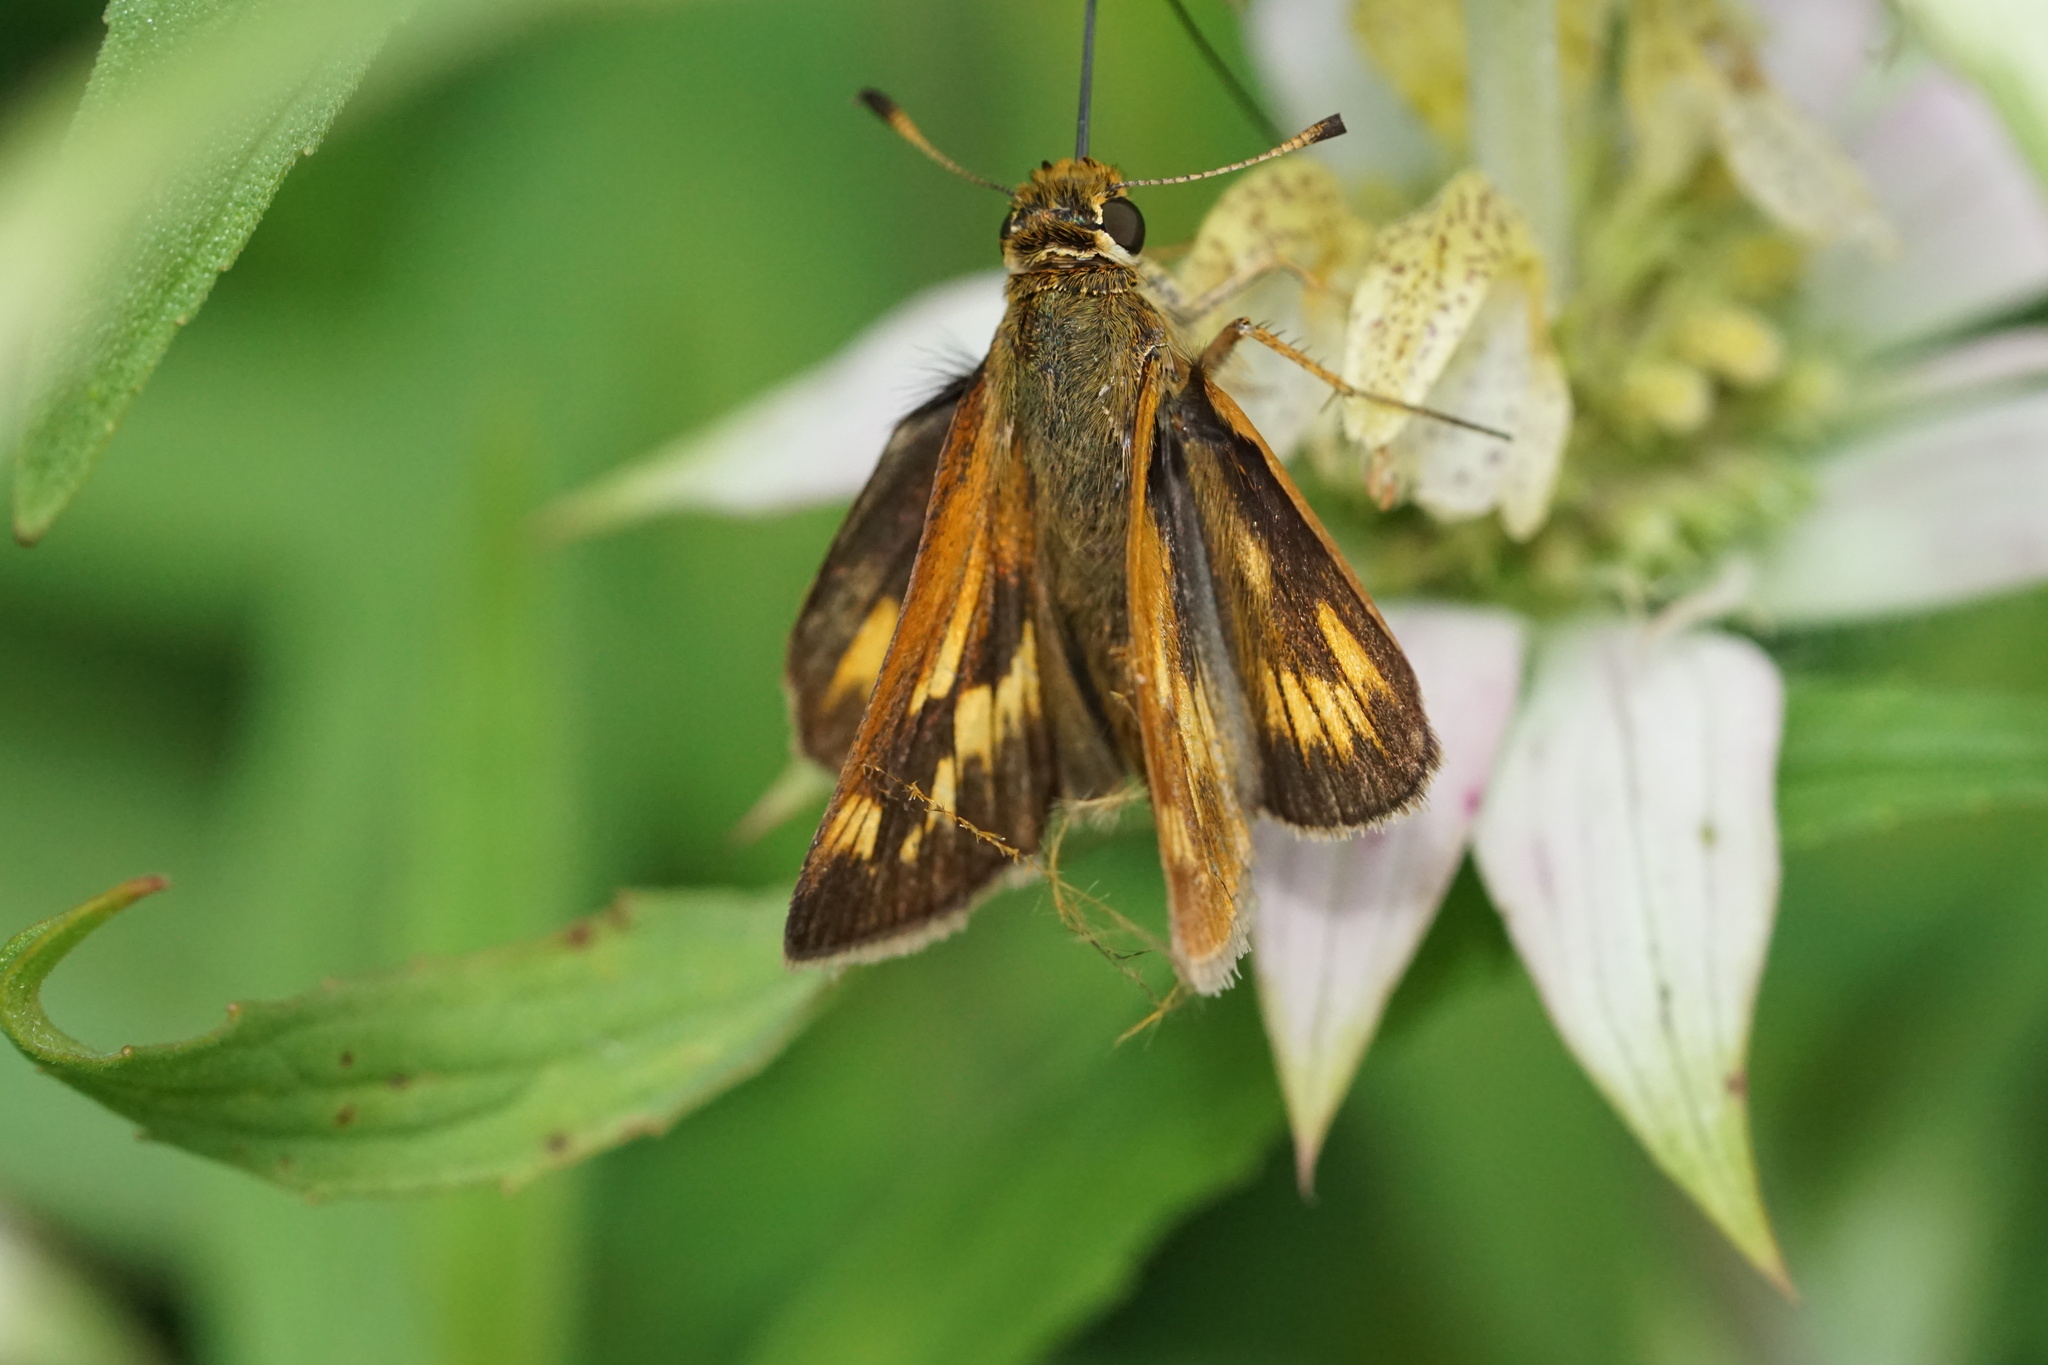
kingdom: Animalia
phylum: Arthropoda
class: Insecta
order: Lepidoptera
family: Hesperiidae
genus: Polites
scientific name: Polites mystic
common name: Long dash
